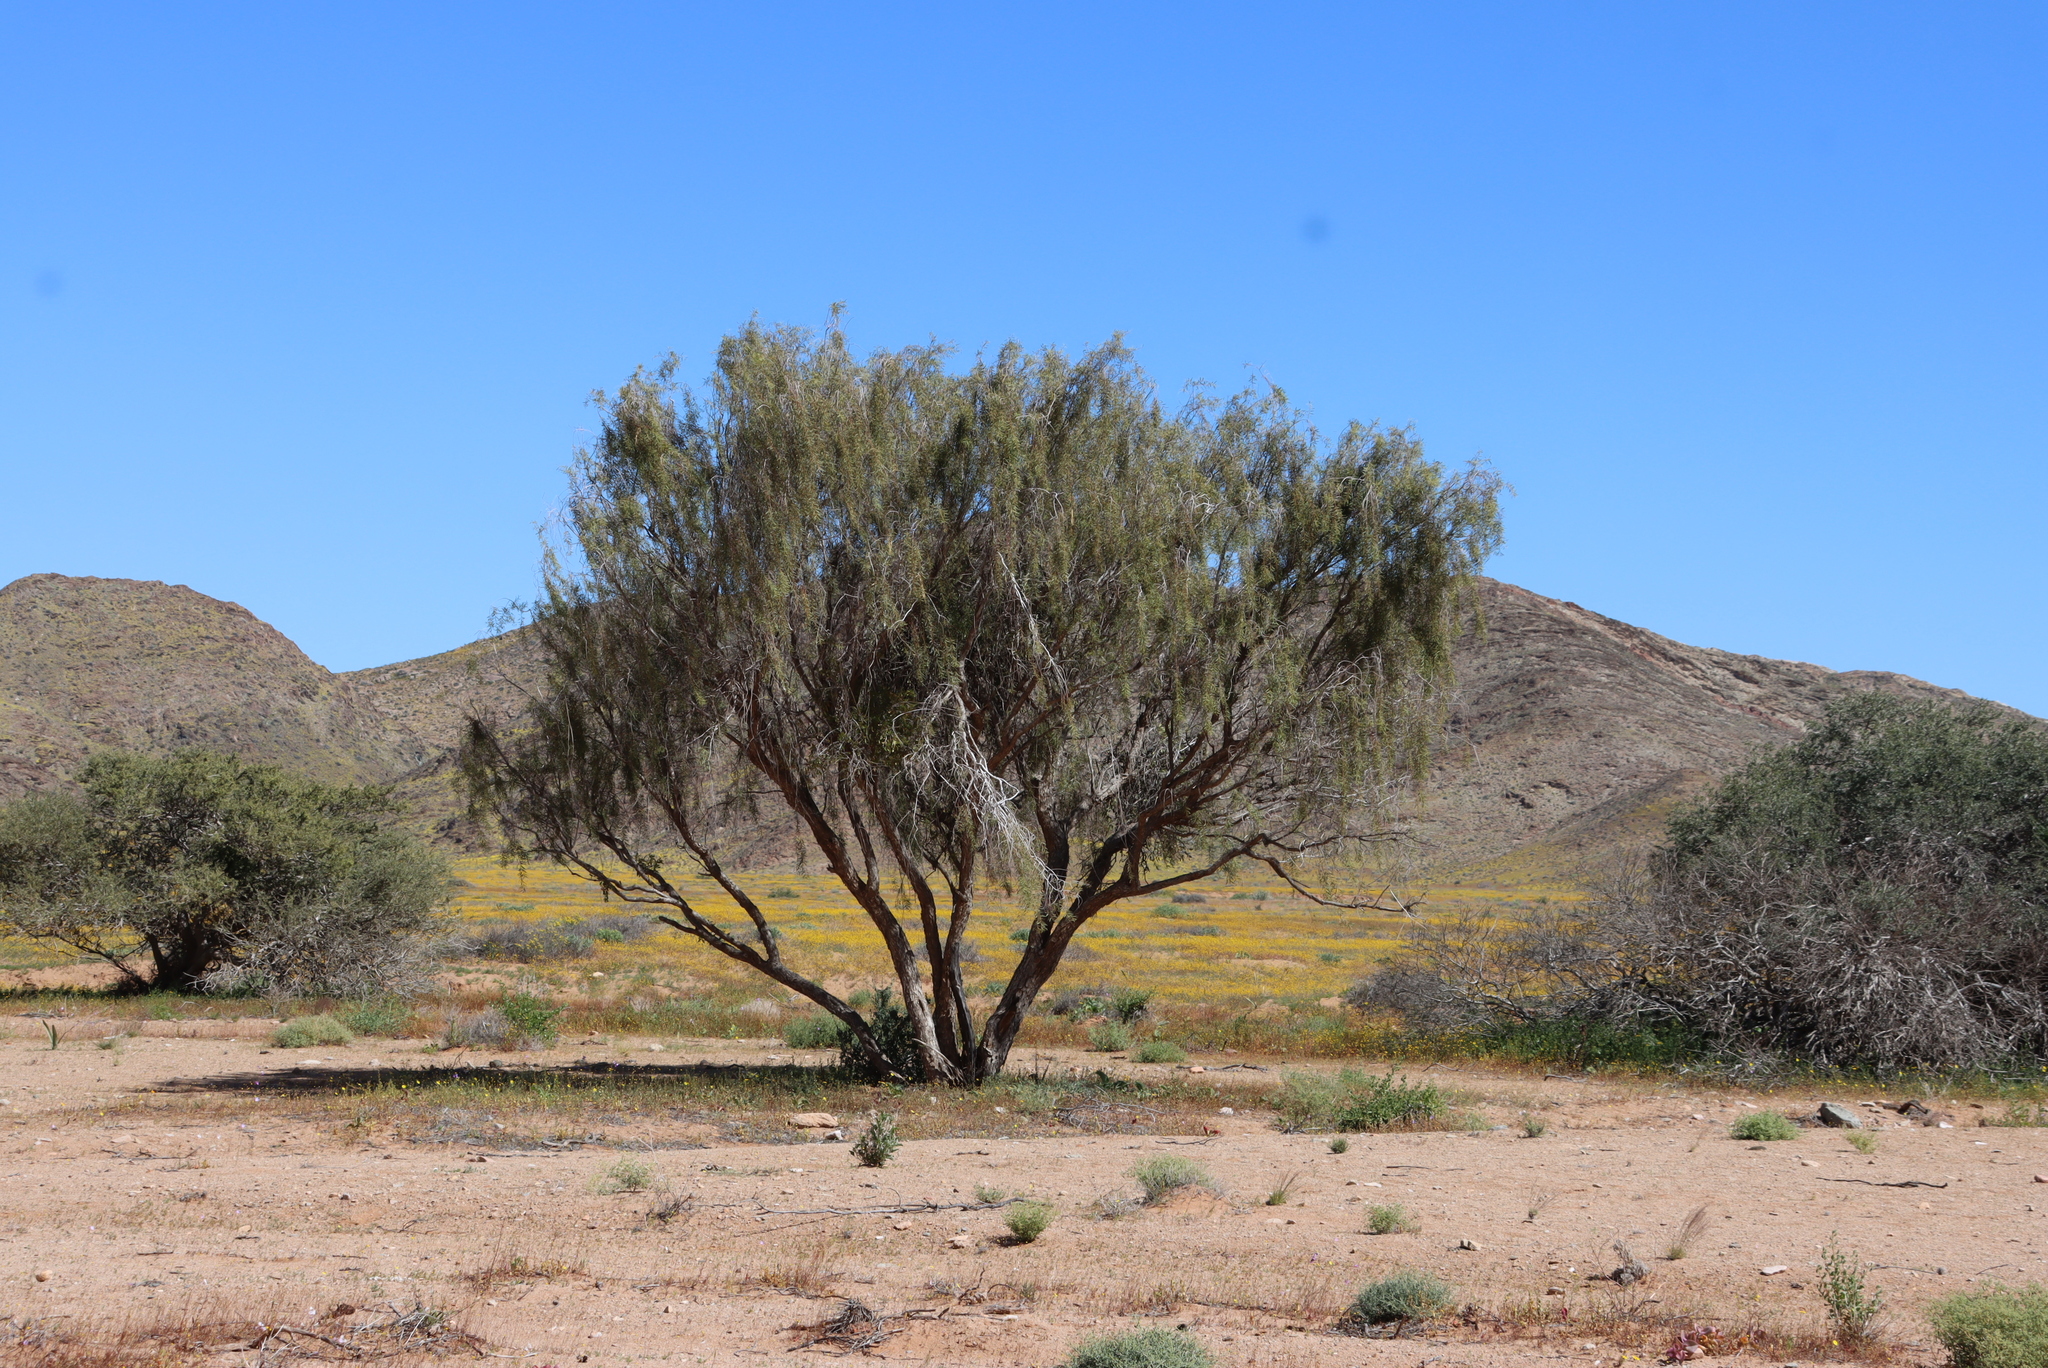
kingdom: Plantae
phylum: Tracheophyta
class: Magnoliopsida
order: Ericales
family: Ebenaceae
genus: Euclea
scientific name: Euclea pseudebenus
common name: Black ebony
